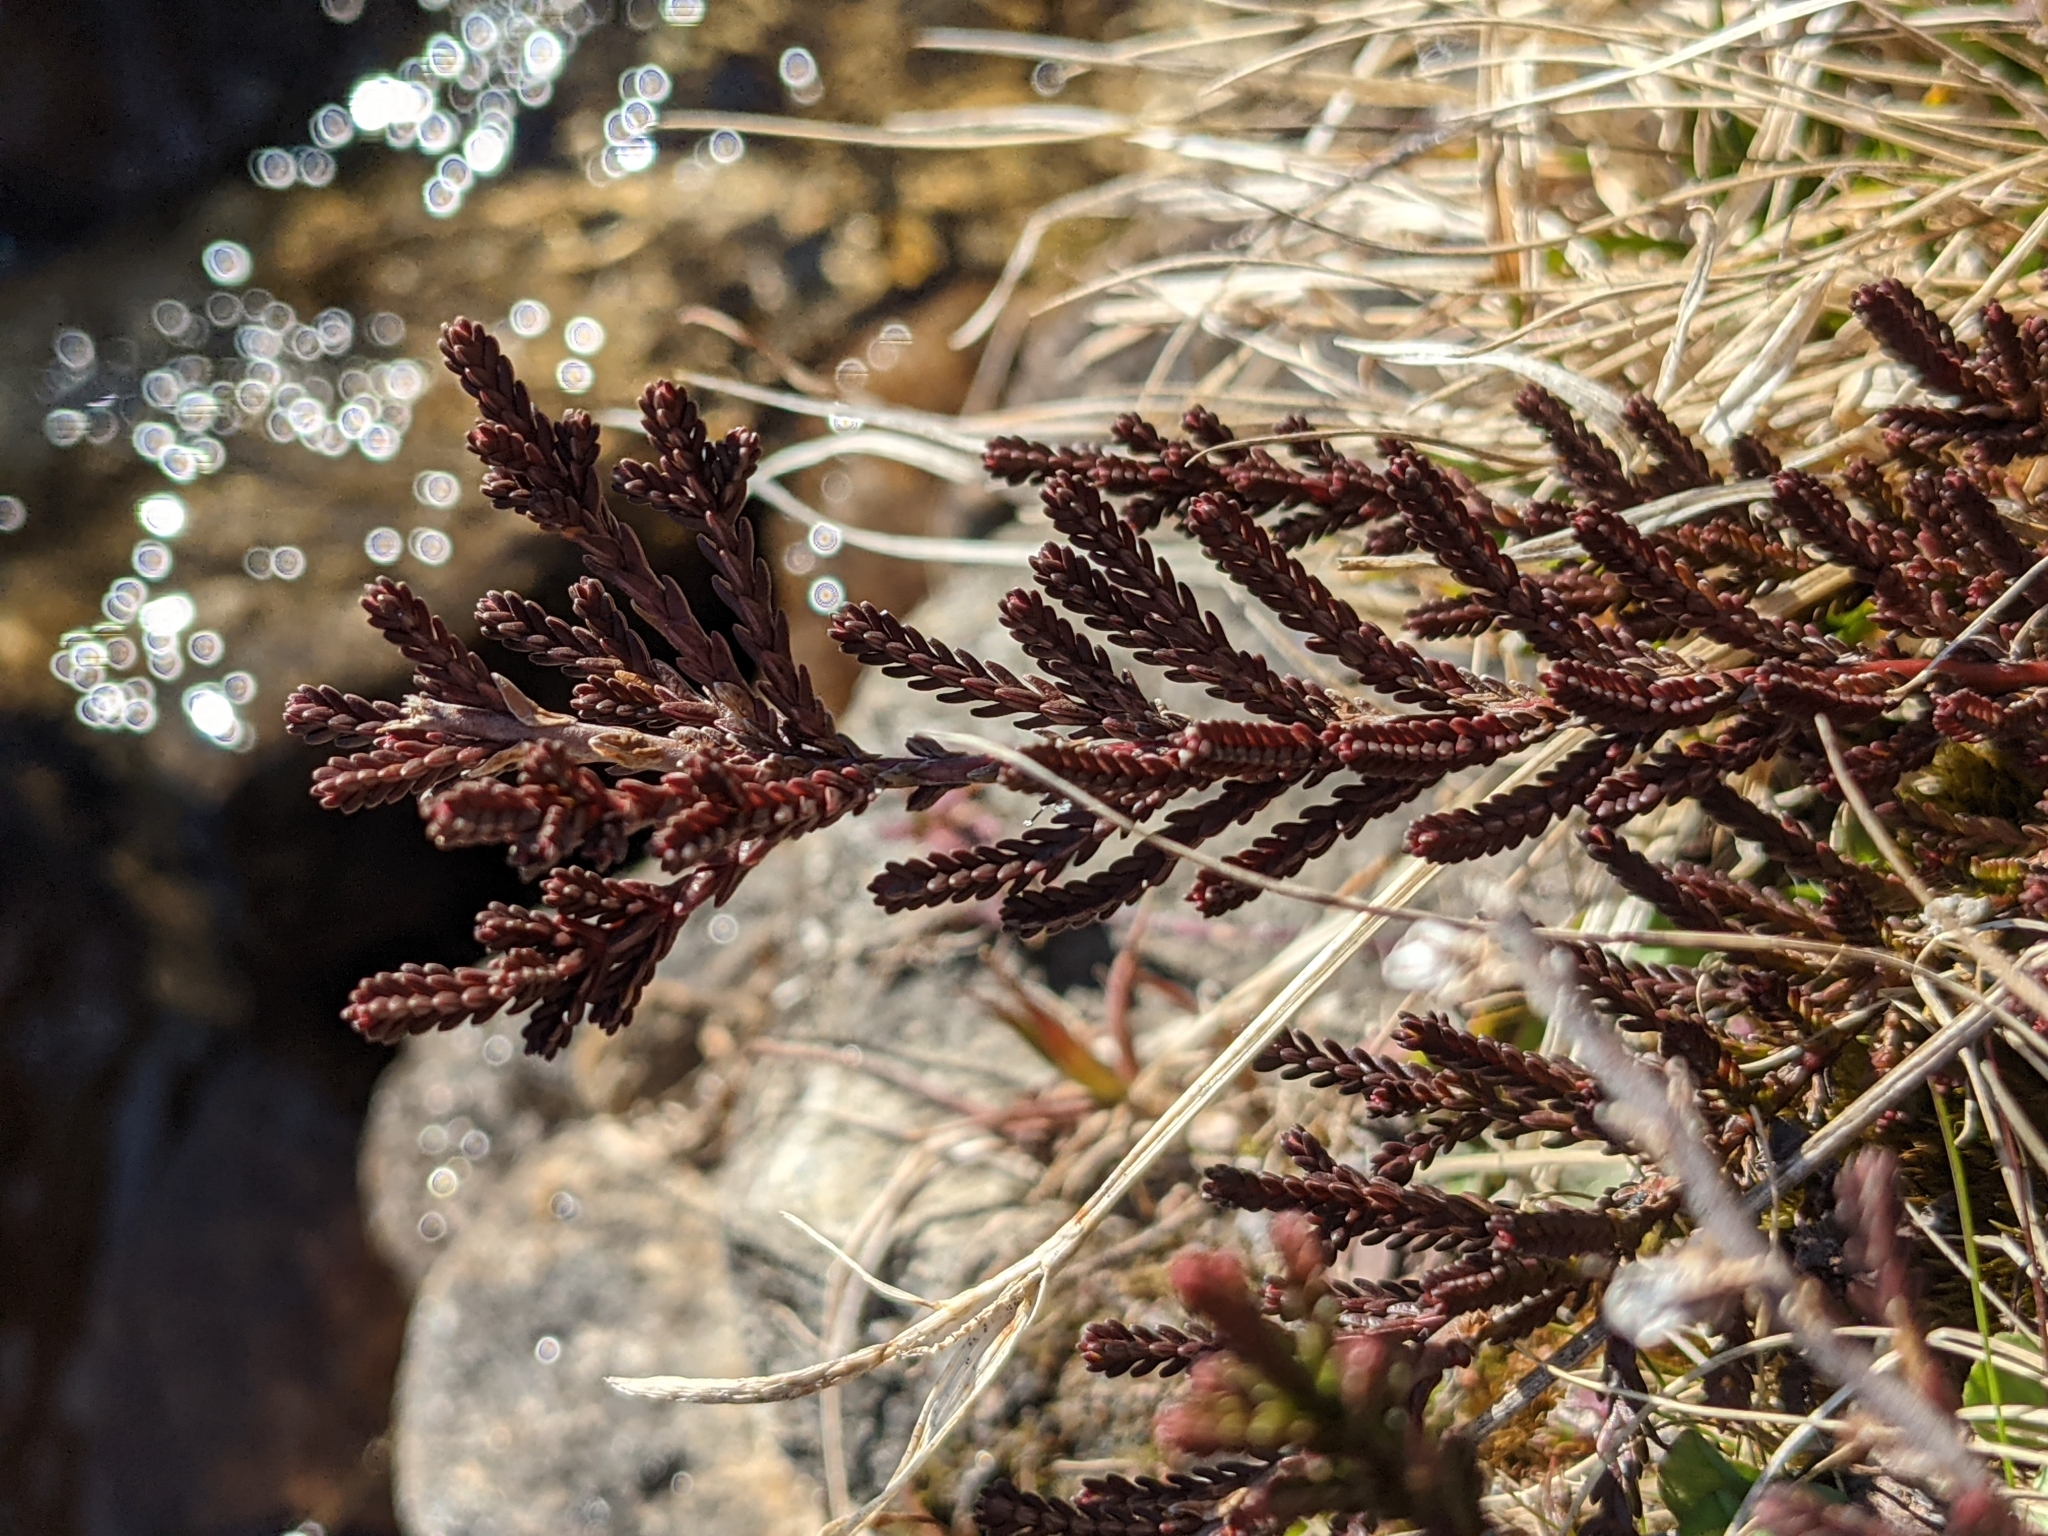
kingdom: Plantae
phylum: Tracheophyta
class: Magnoliopsida
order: Ericales
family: Ericaceae
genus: Calluna
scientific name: Calluna vulgaris
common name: Heather
